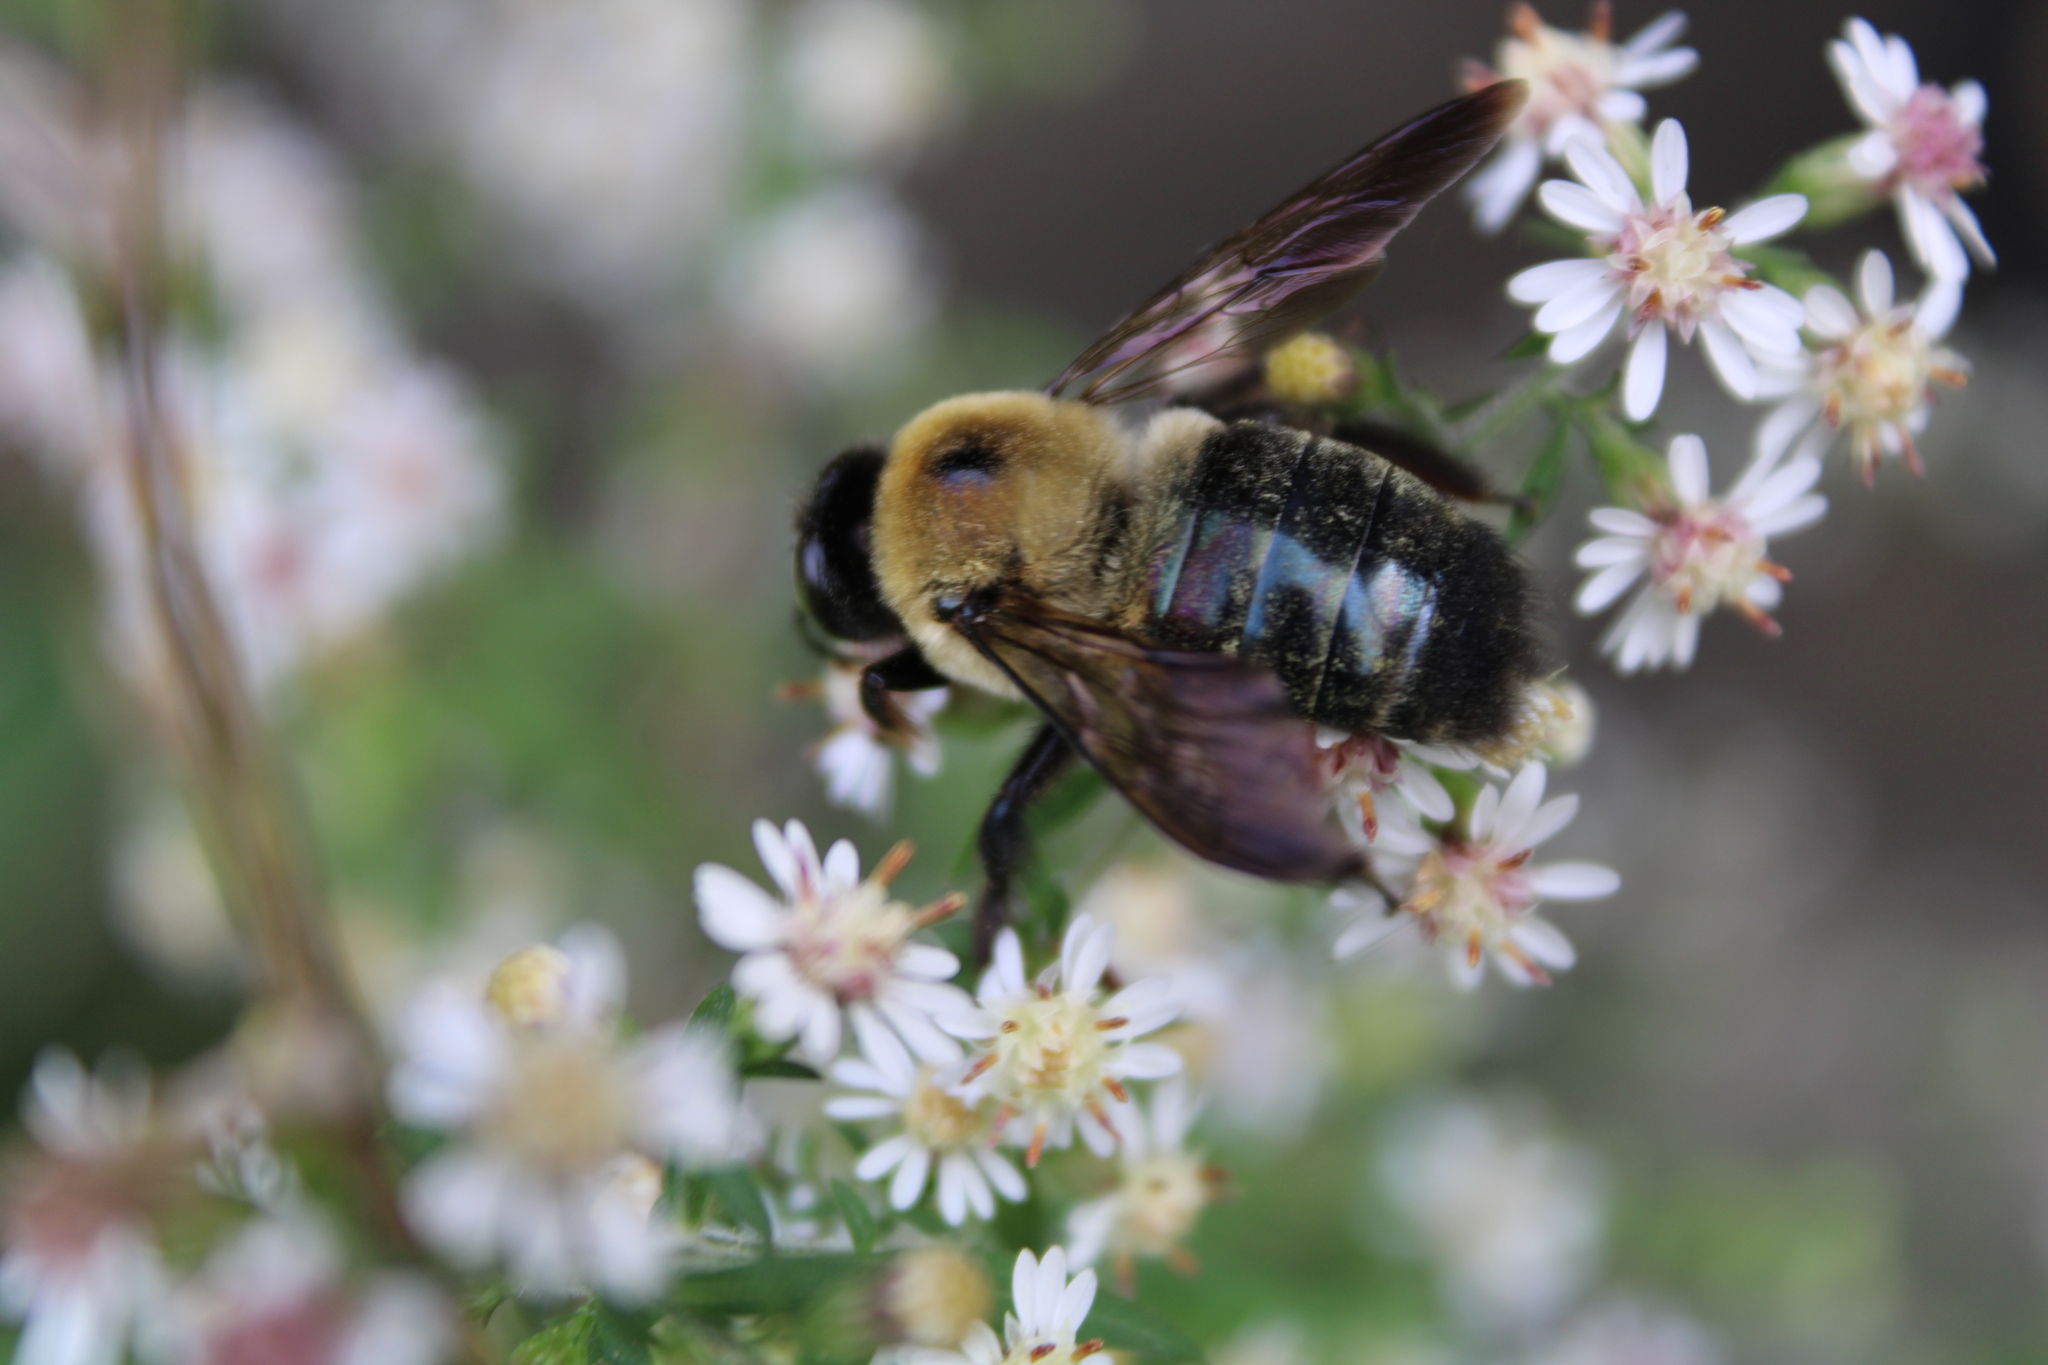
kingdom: Animalia
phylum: Arthropoda
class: Insecta
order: Hymenoptera
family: Apidae
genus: Xylocopa
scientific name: Xylocopa virginica
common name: Carpenter bee
